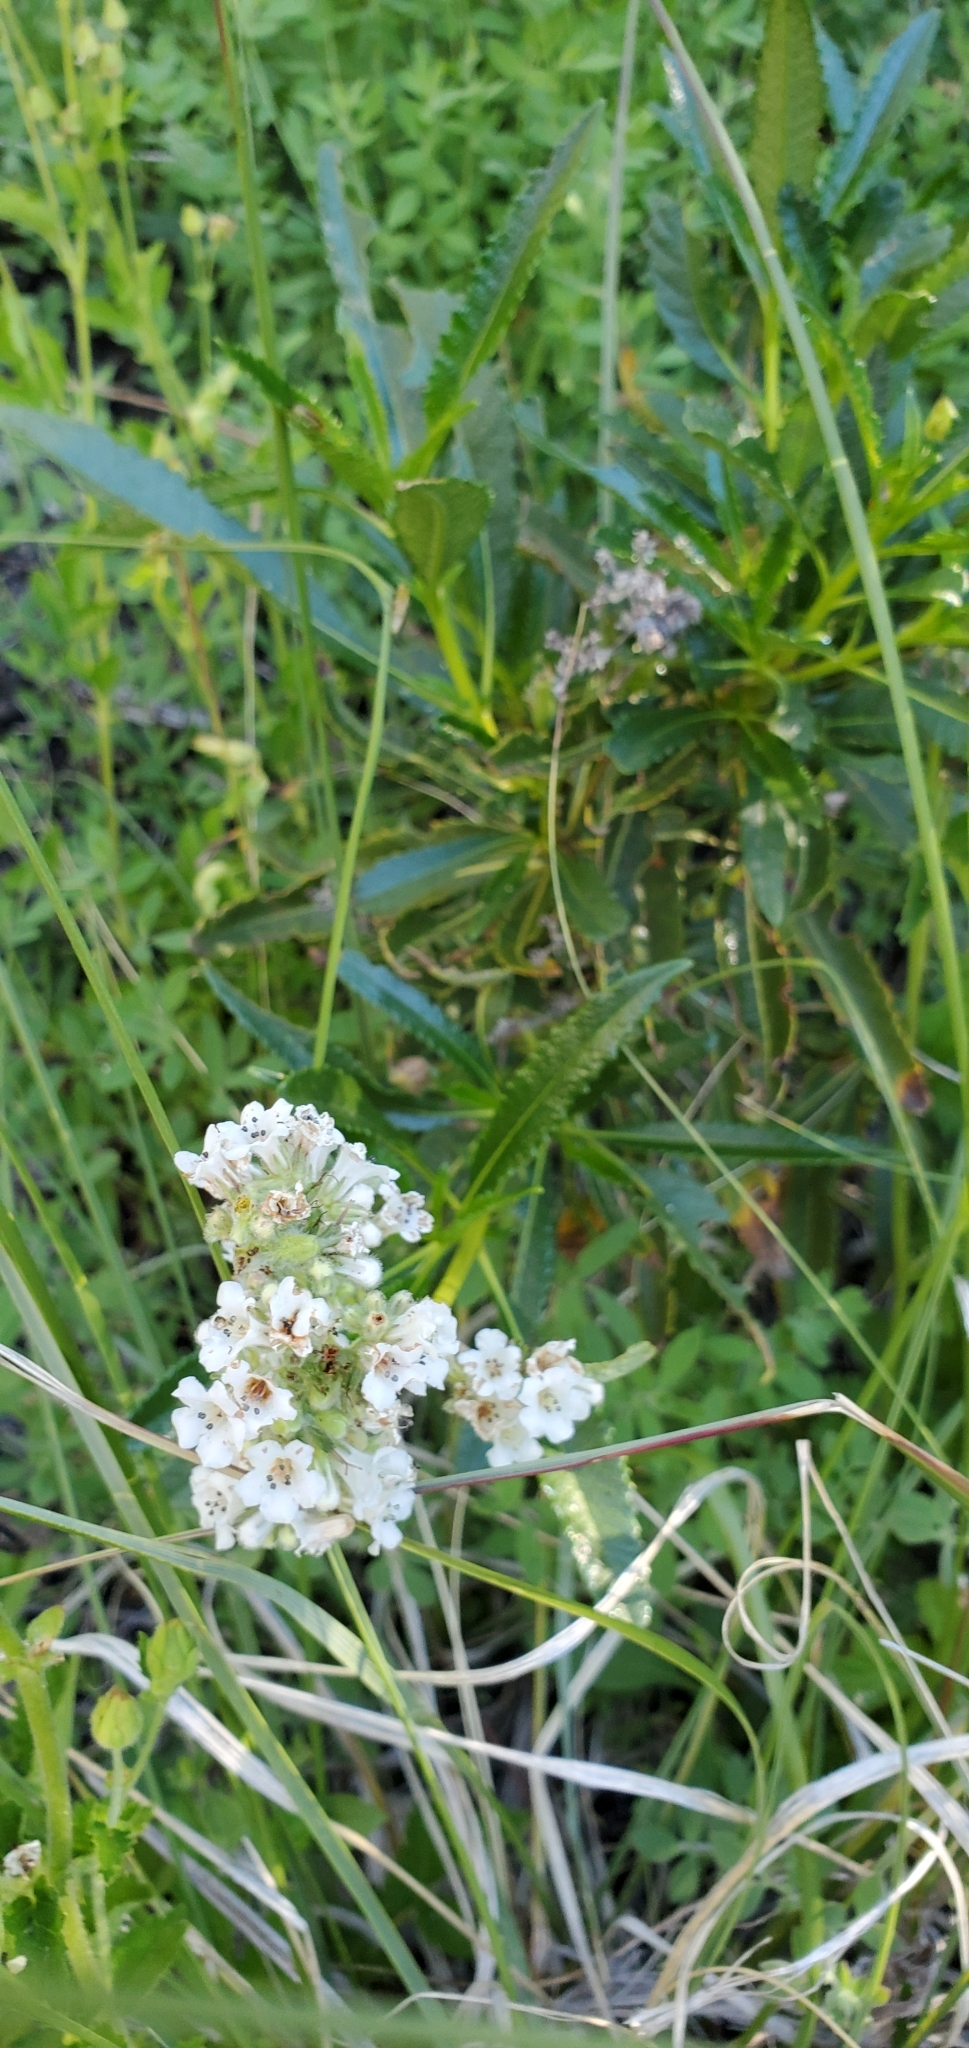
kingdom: Plantae
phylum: Tracheophyta
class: Magnoliopsida
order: Boraginales
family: Namaceae
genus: Eriodictyon
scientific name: Eriodictyon trichocalyx
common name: Hairy yerba-santa
